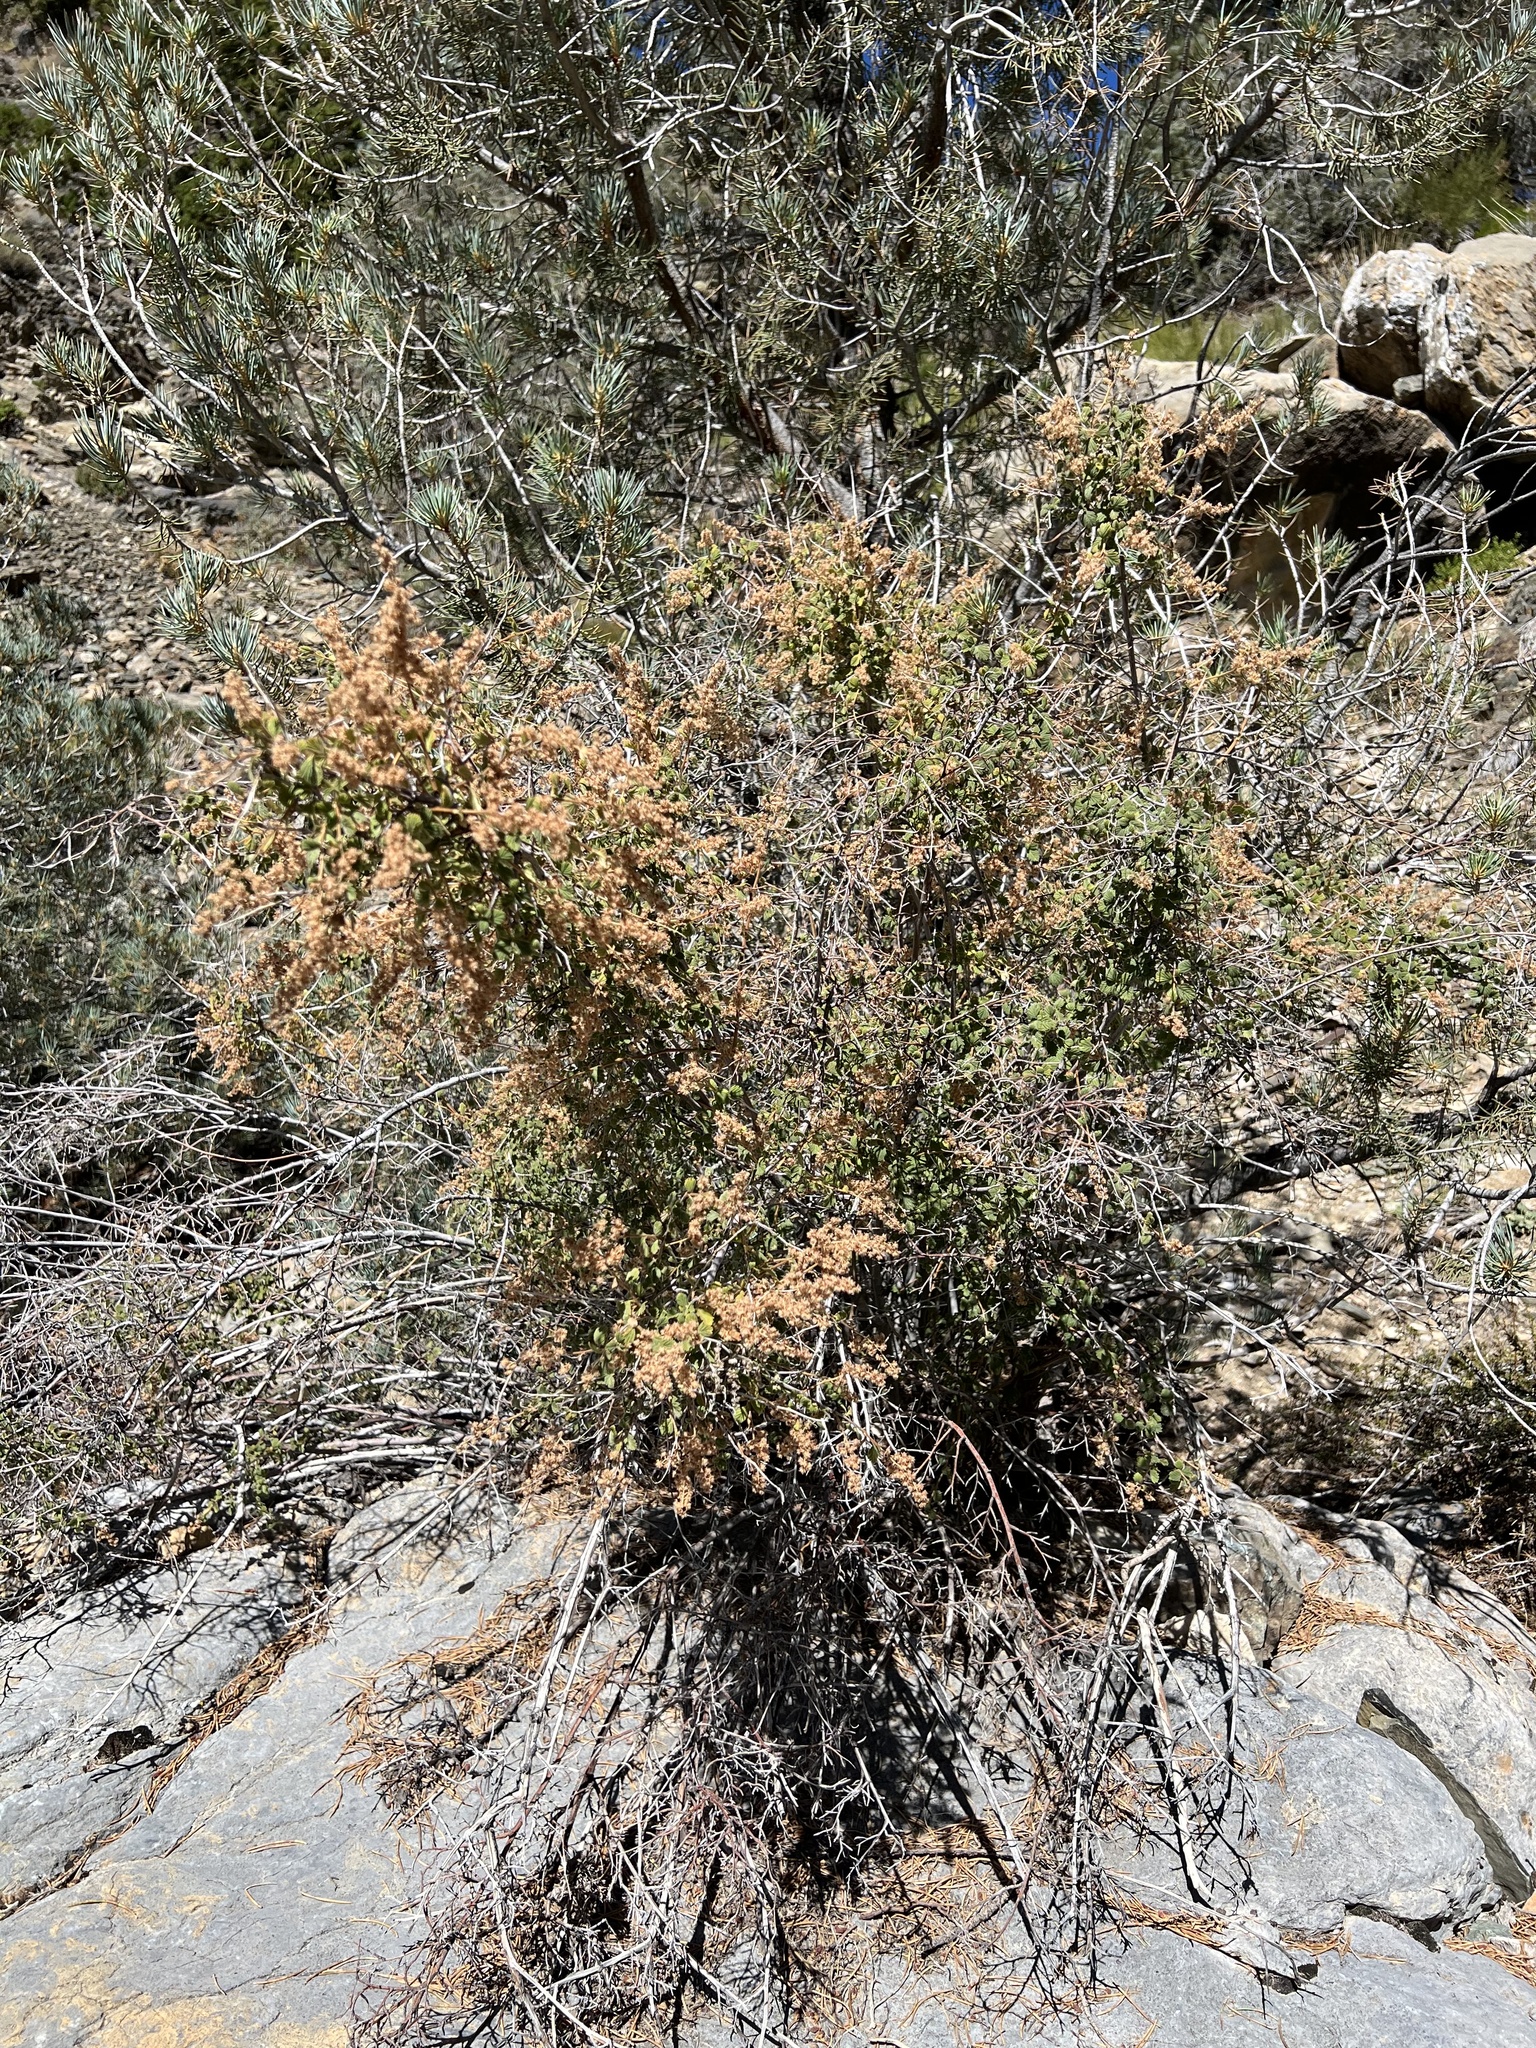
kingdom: Plantae
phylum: Tracheophyta
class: Magnoliopsida
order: Rosales
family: Rosaceae
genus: Holodiscus
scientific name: Holodiscus discolor
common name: Oceanspray
